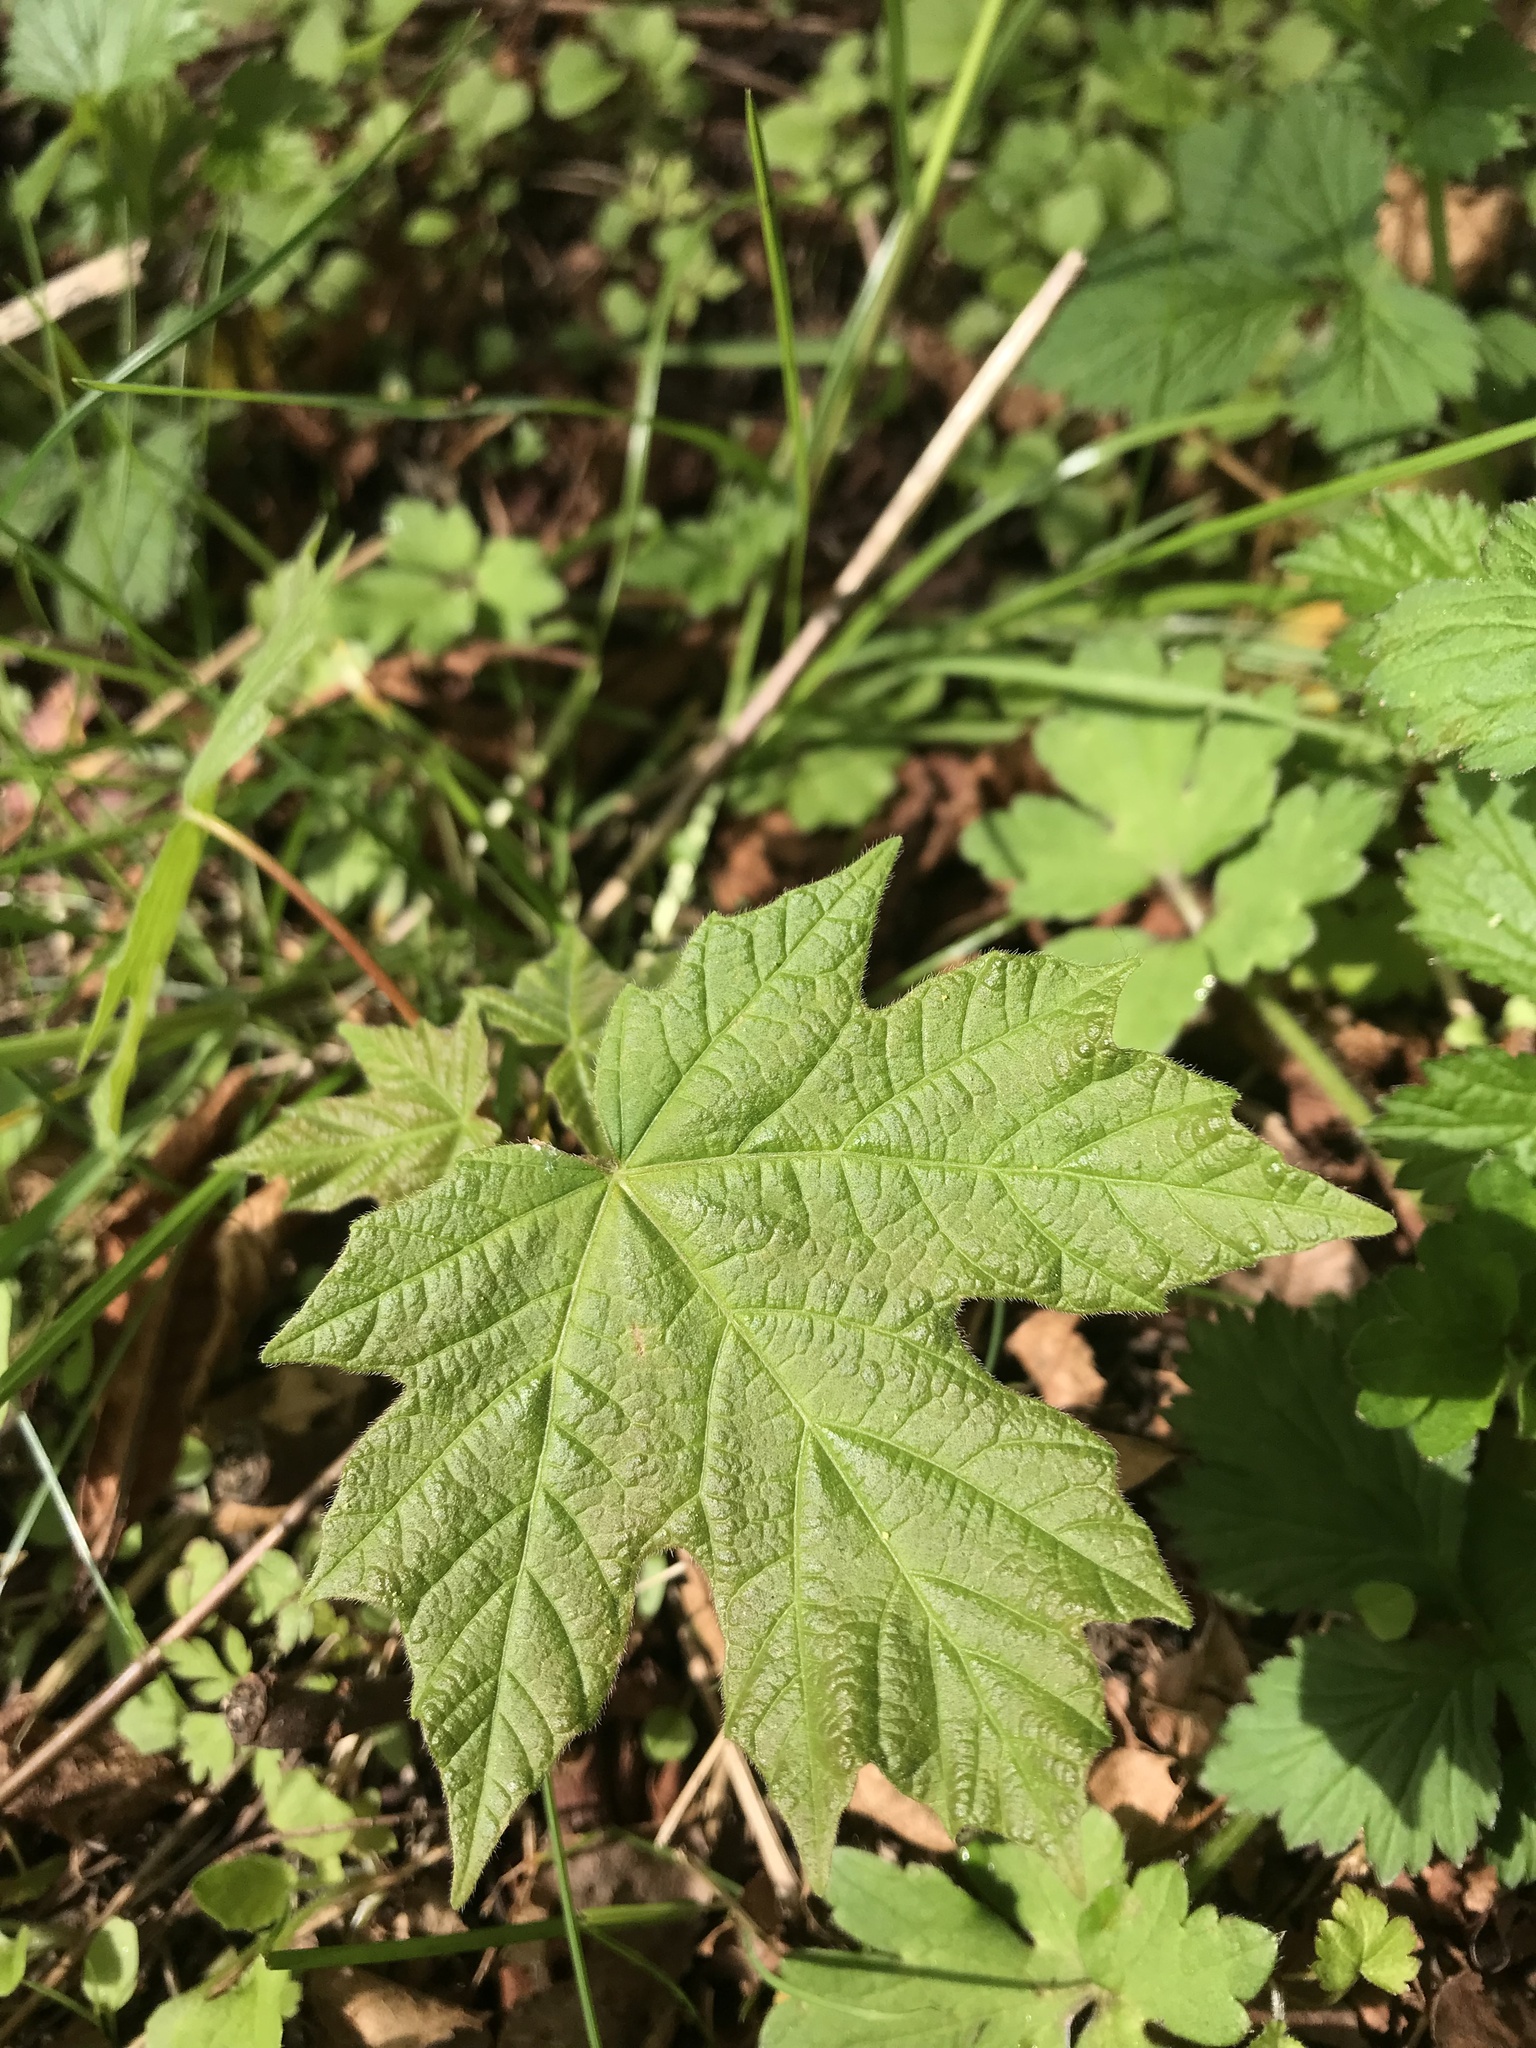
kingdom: Plantae
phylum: Tracheophyta
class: Magnoliopsida
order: Sapindales
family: Sapindaceae
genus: Acer
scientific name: Acer macrophyllum
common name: Oregon maple
